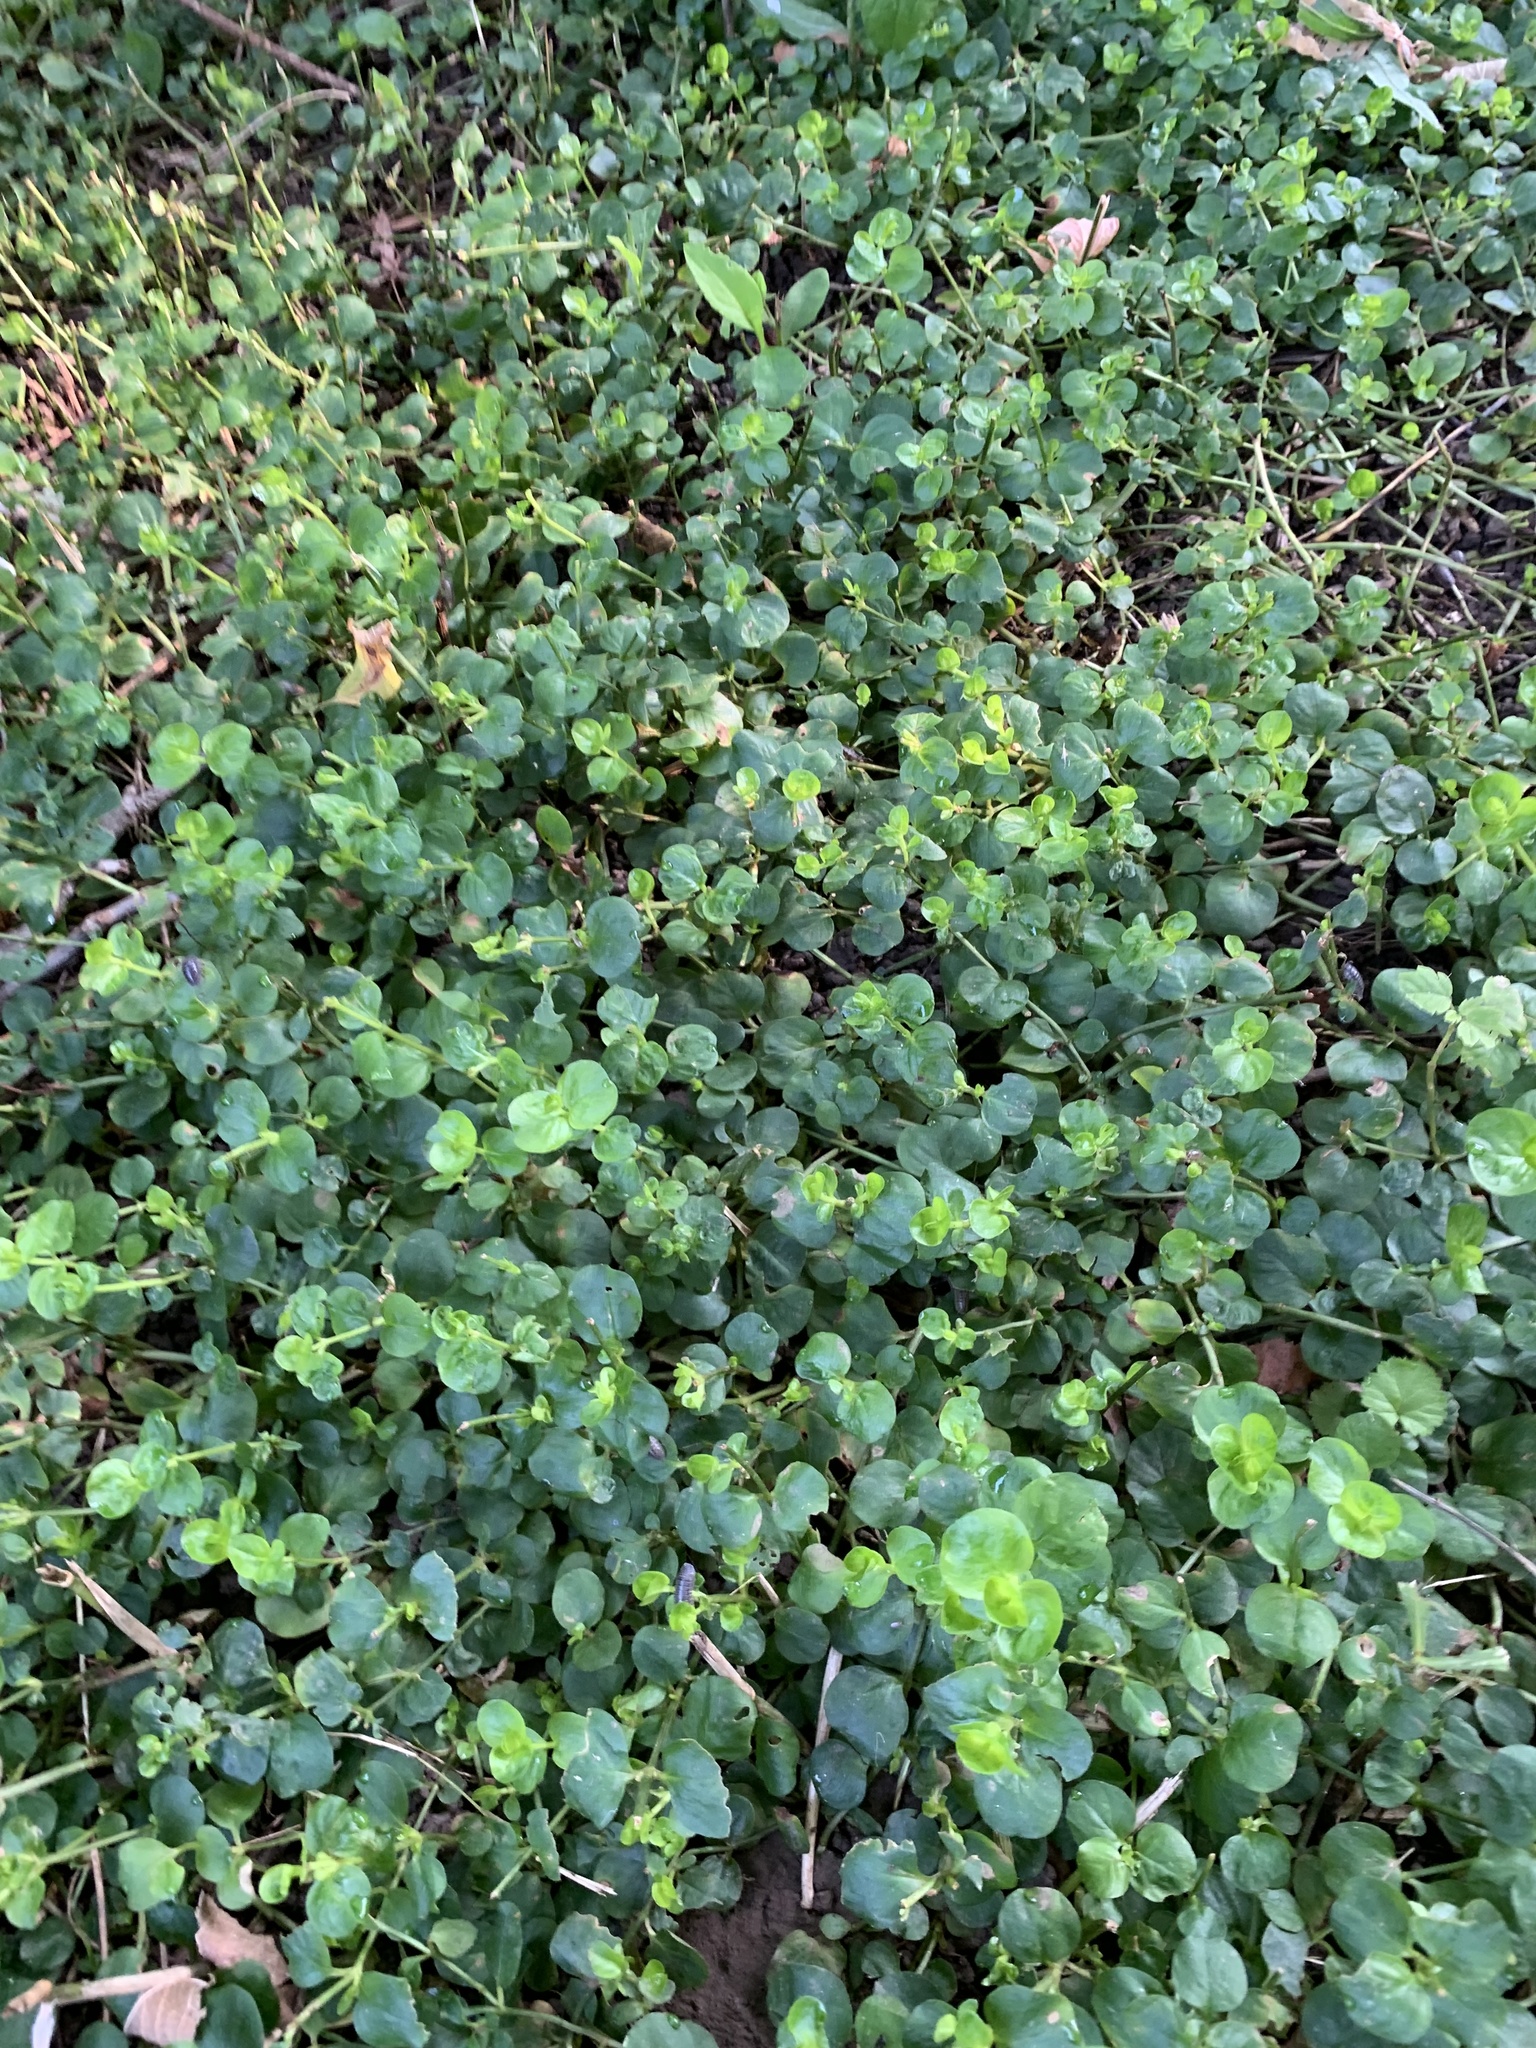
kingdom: Plantae
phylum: Tracheophyta
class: Magnoliopsida
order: Ericales
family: Primulaceae
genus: Lysimachia
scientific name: Lysimachia nummularia
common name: Moneywort
